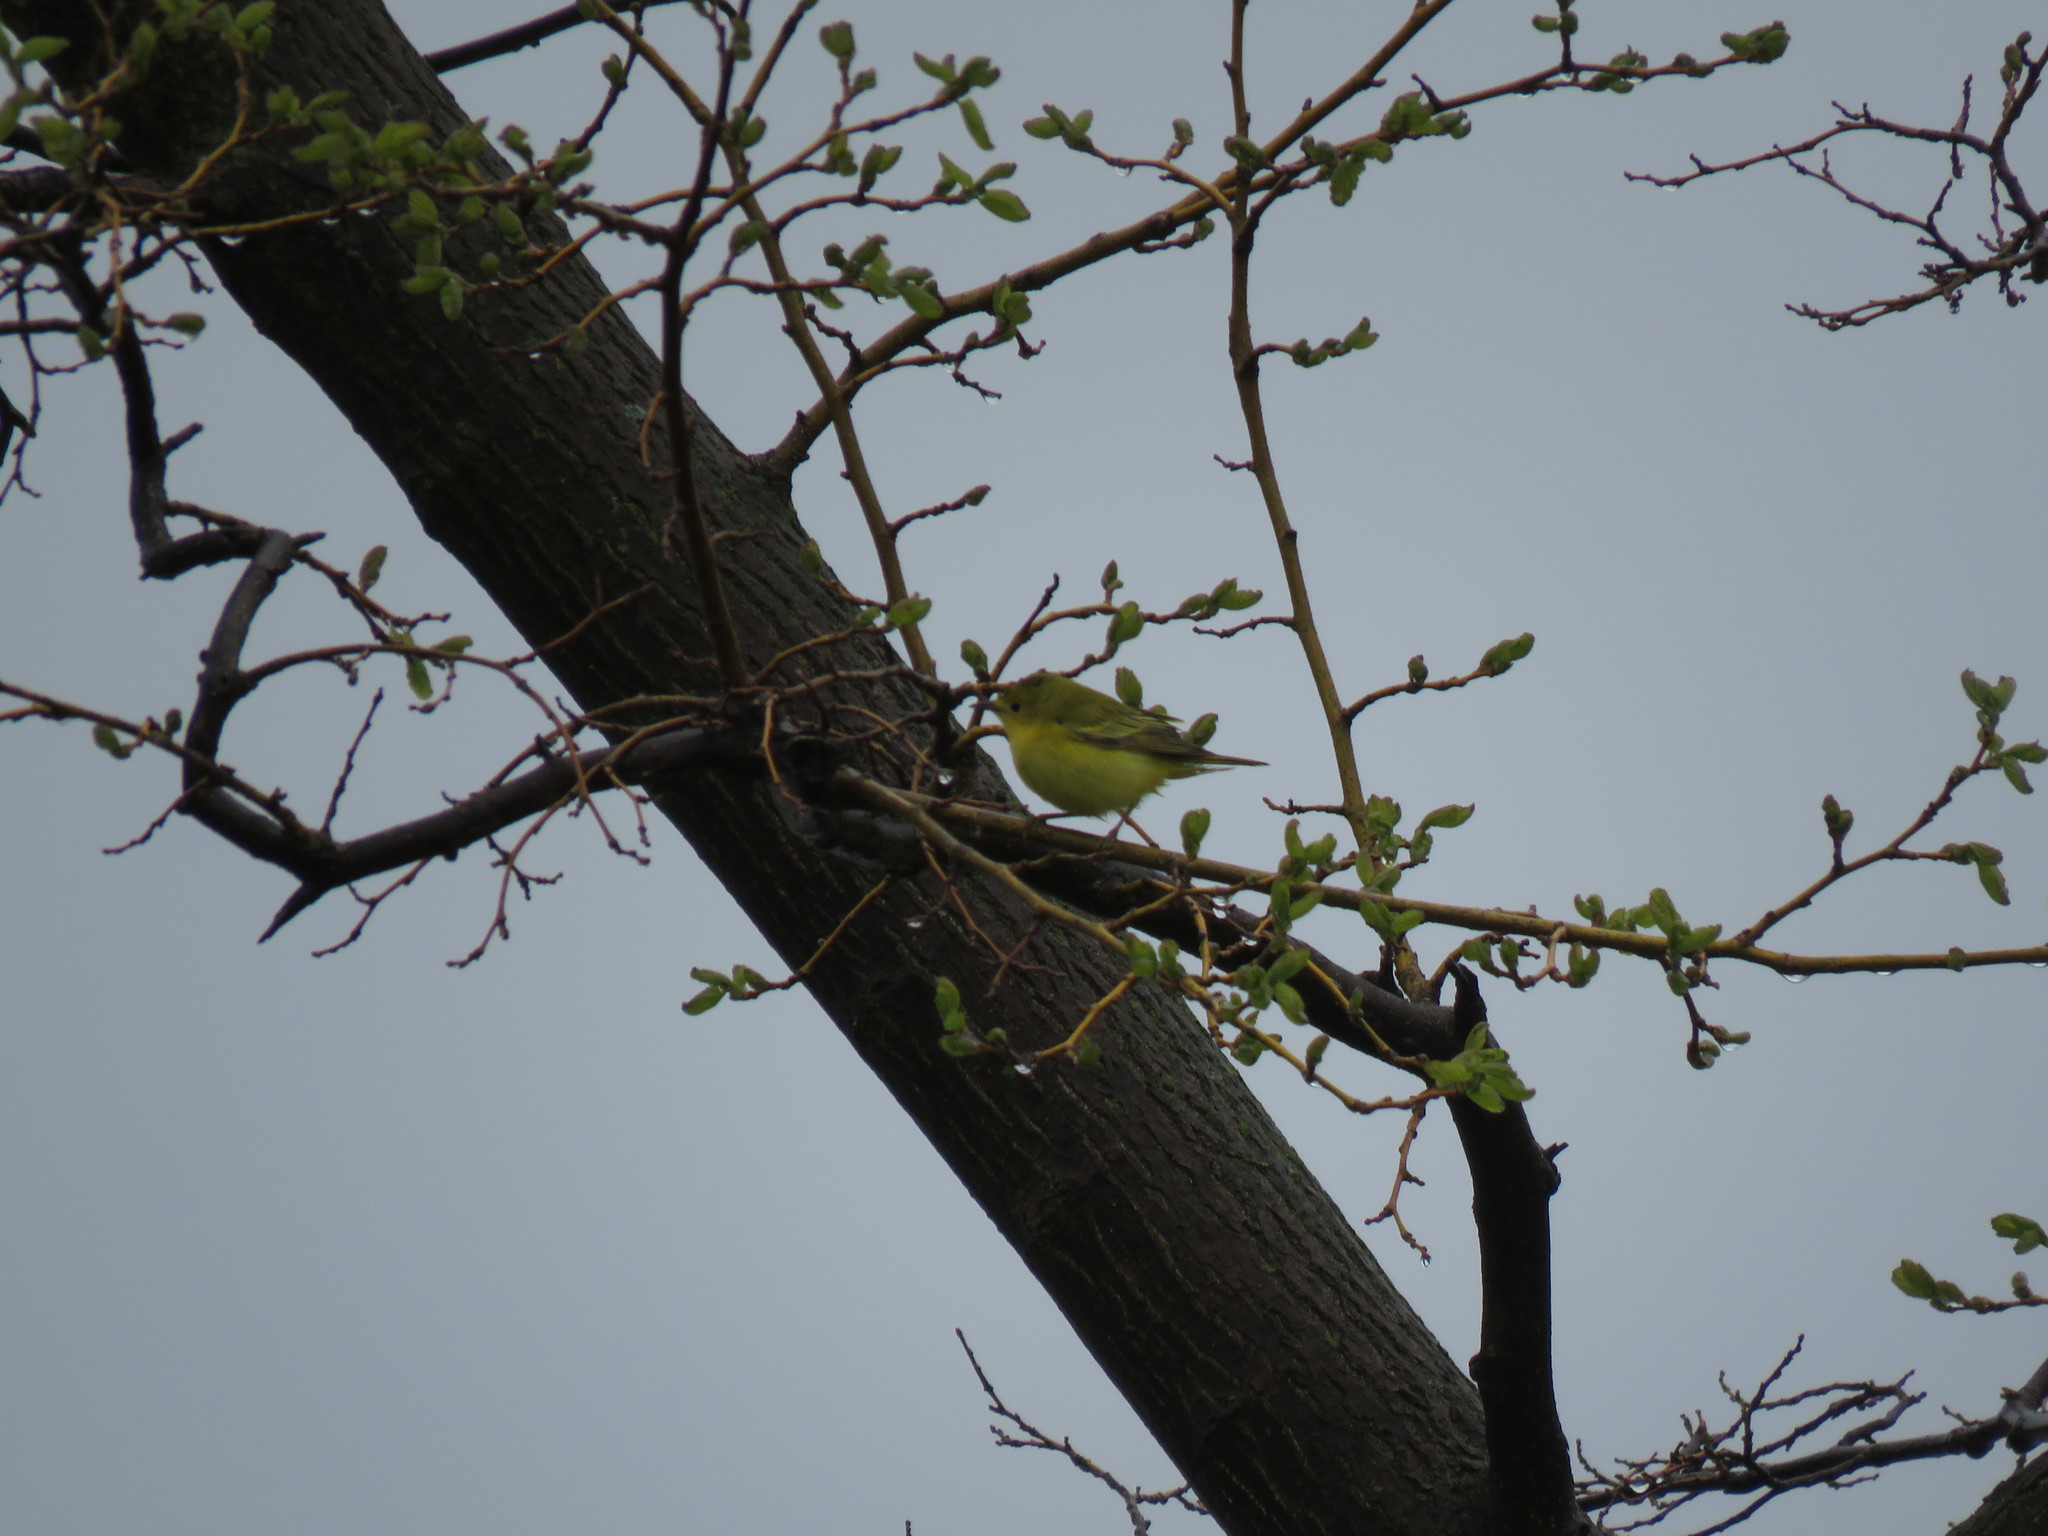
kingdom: Animalia
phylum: Chordata
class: Aves
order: Passeriformes
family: Parulidae
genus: Setophaga
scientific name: Setophaga petechia
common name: Yellow warbler
